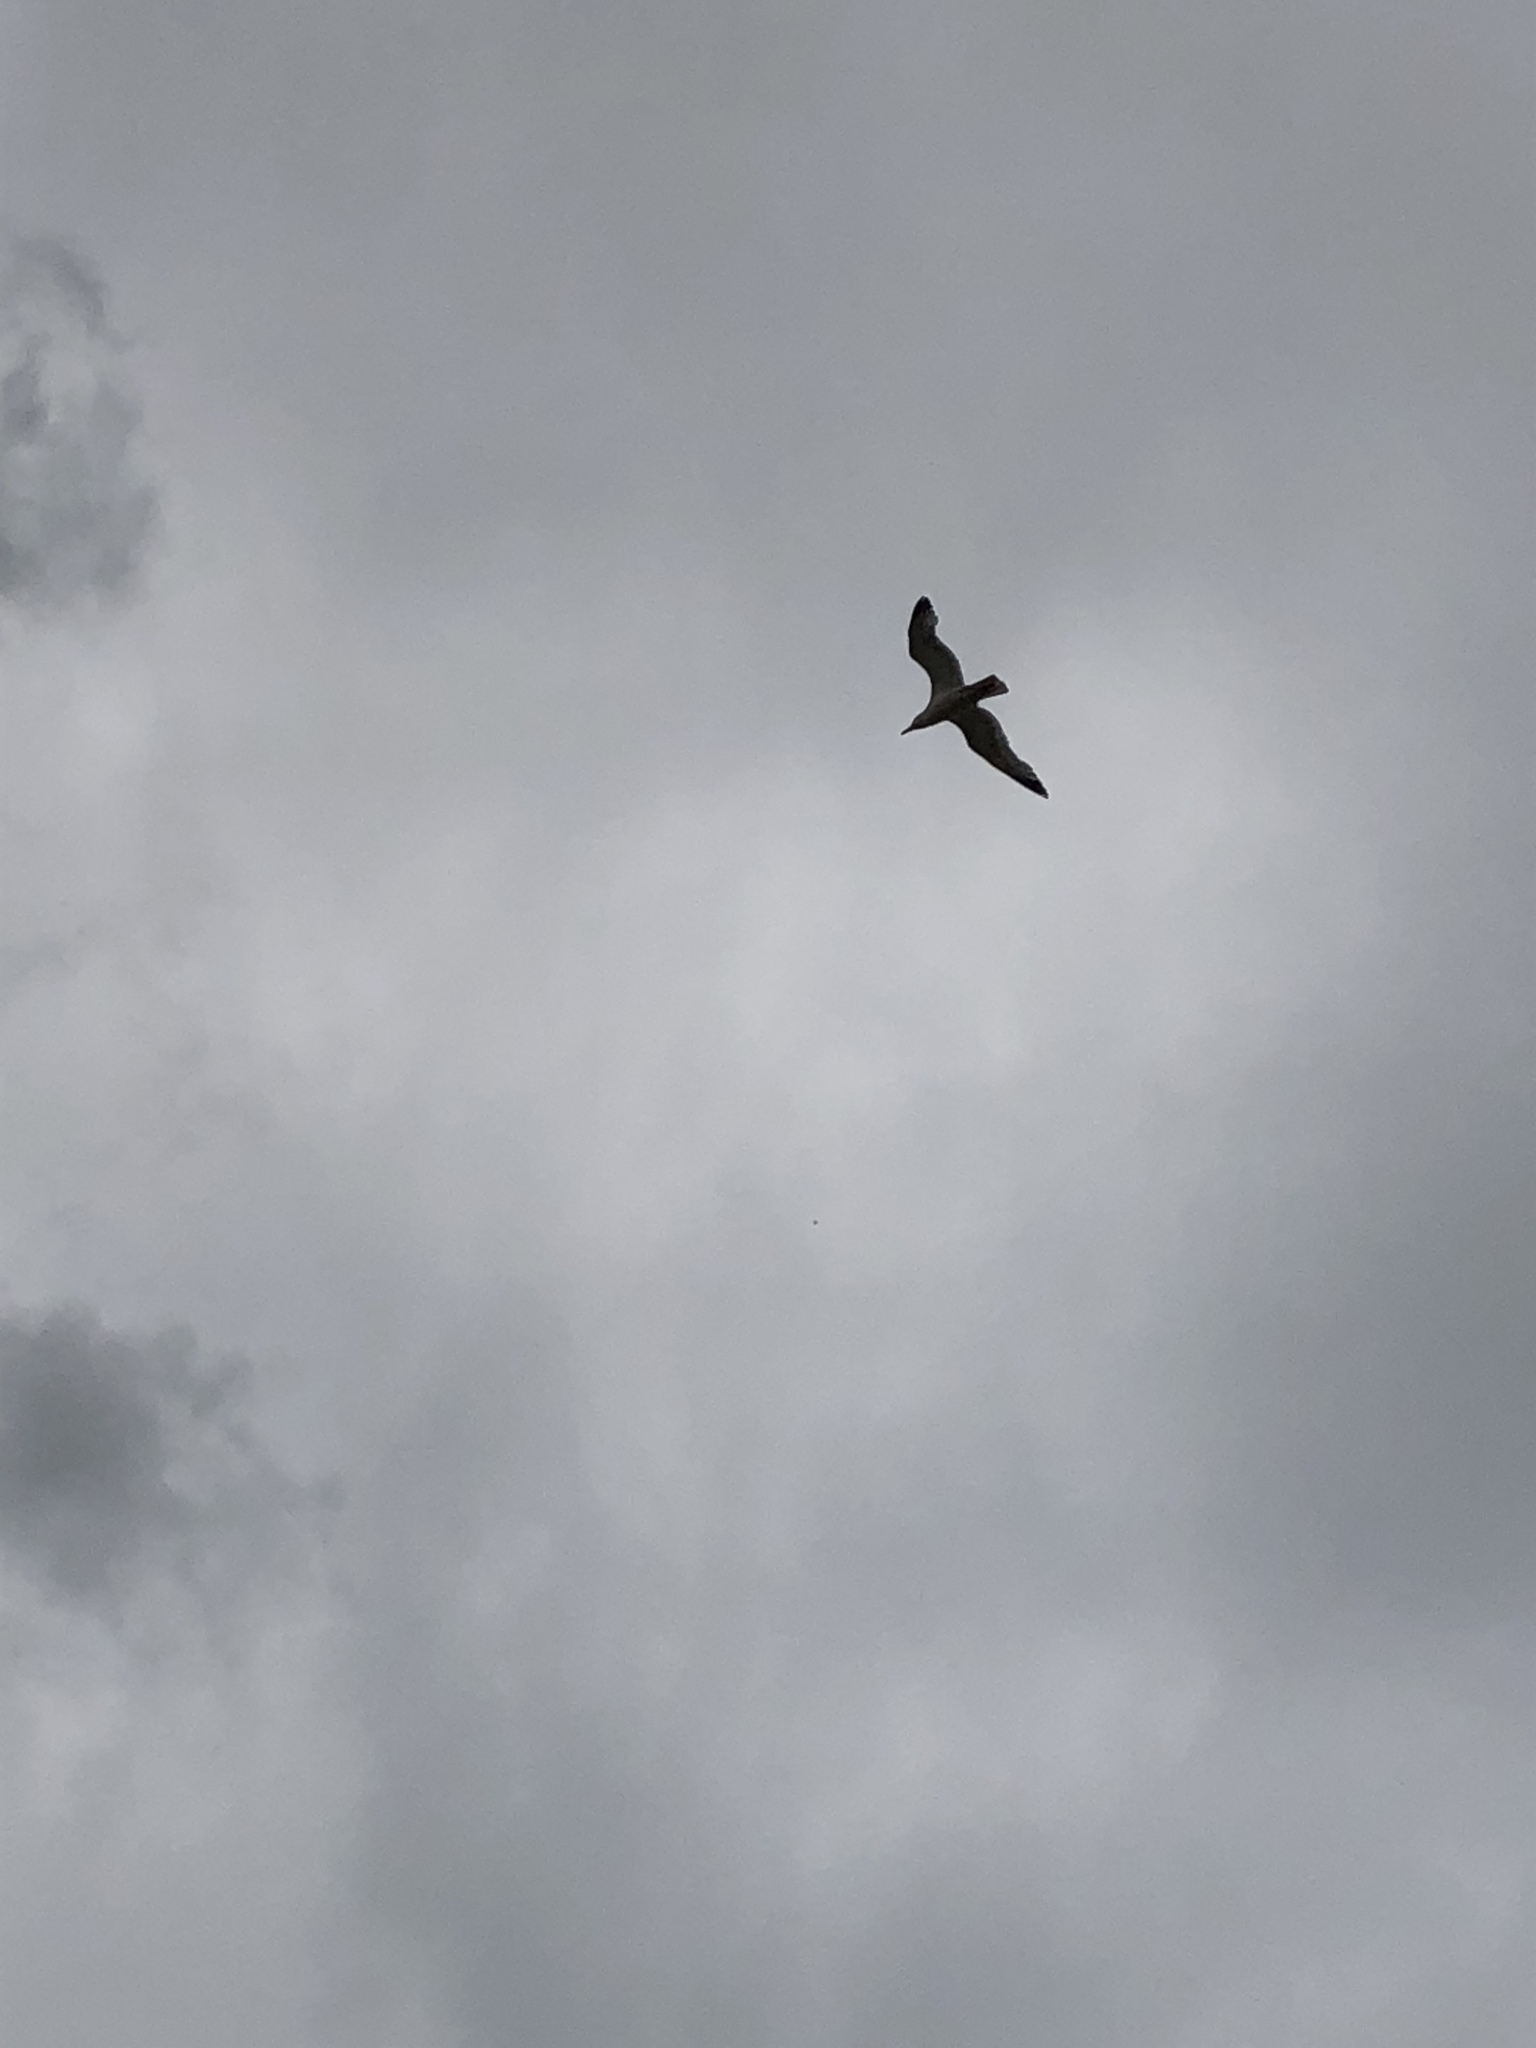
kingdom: Animalia
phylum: Chordata
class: Aves
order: Charadriiformes
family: Laridae
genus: Larus
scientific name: Larus
